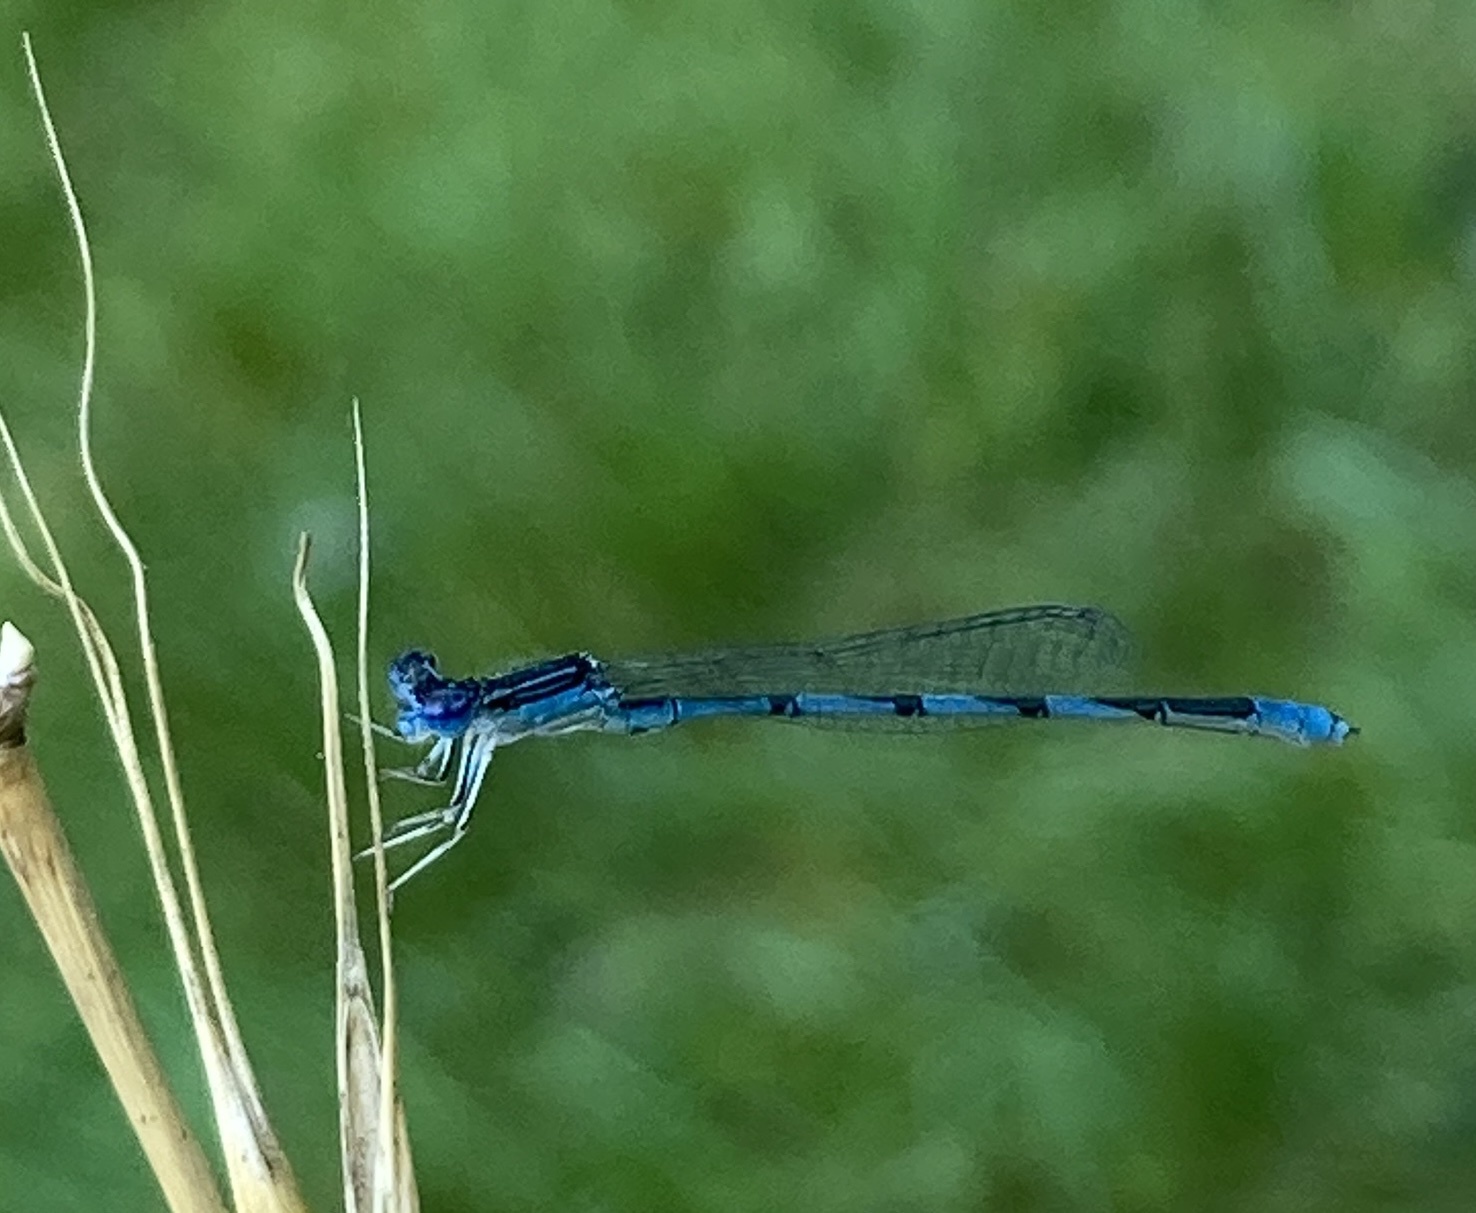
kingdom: Animalia
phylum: Arthropoda
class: Insecta
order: Odonata
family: Coenagrionidae
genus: Enallagma
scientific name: Enallagma basidens
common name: Double-striped bluet
